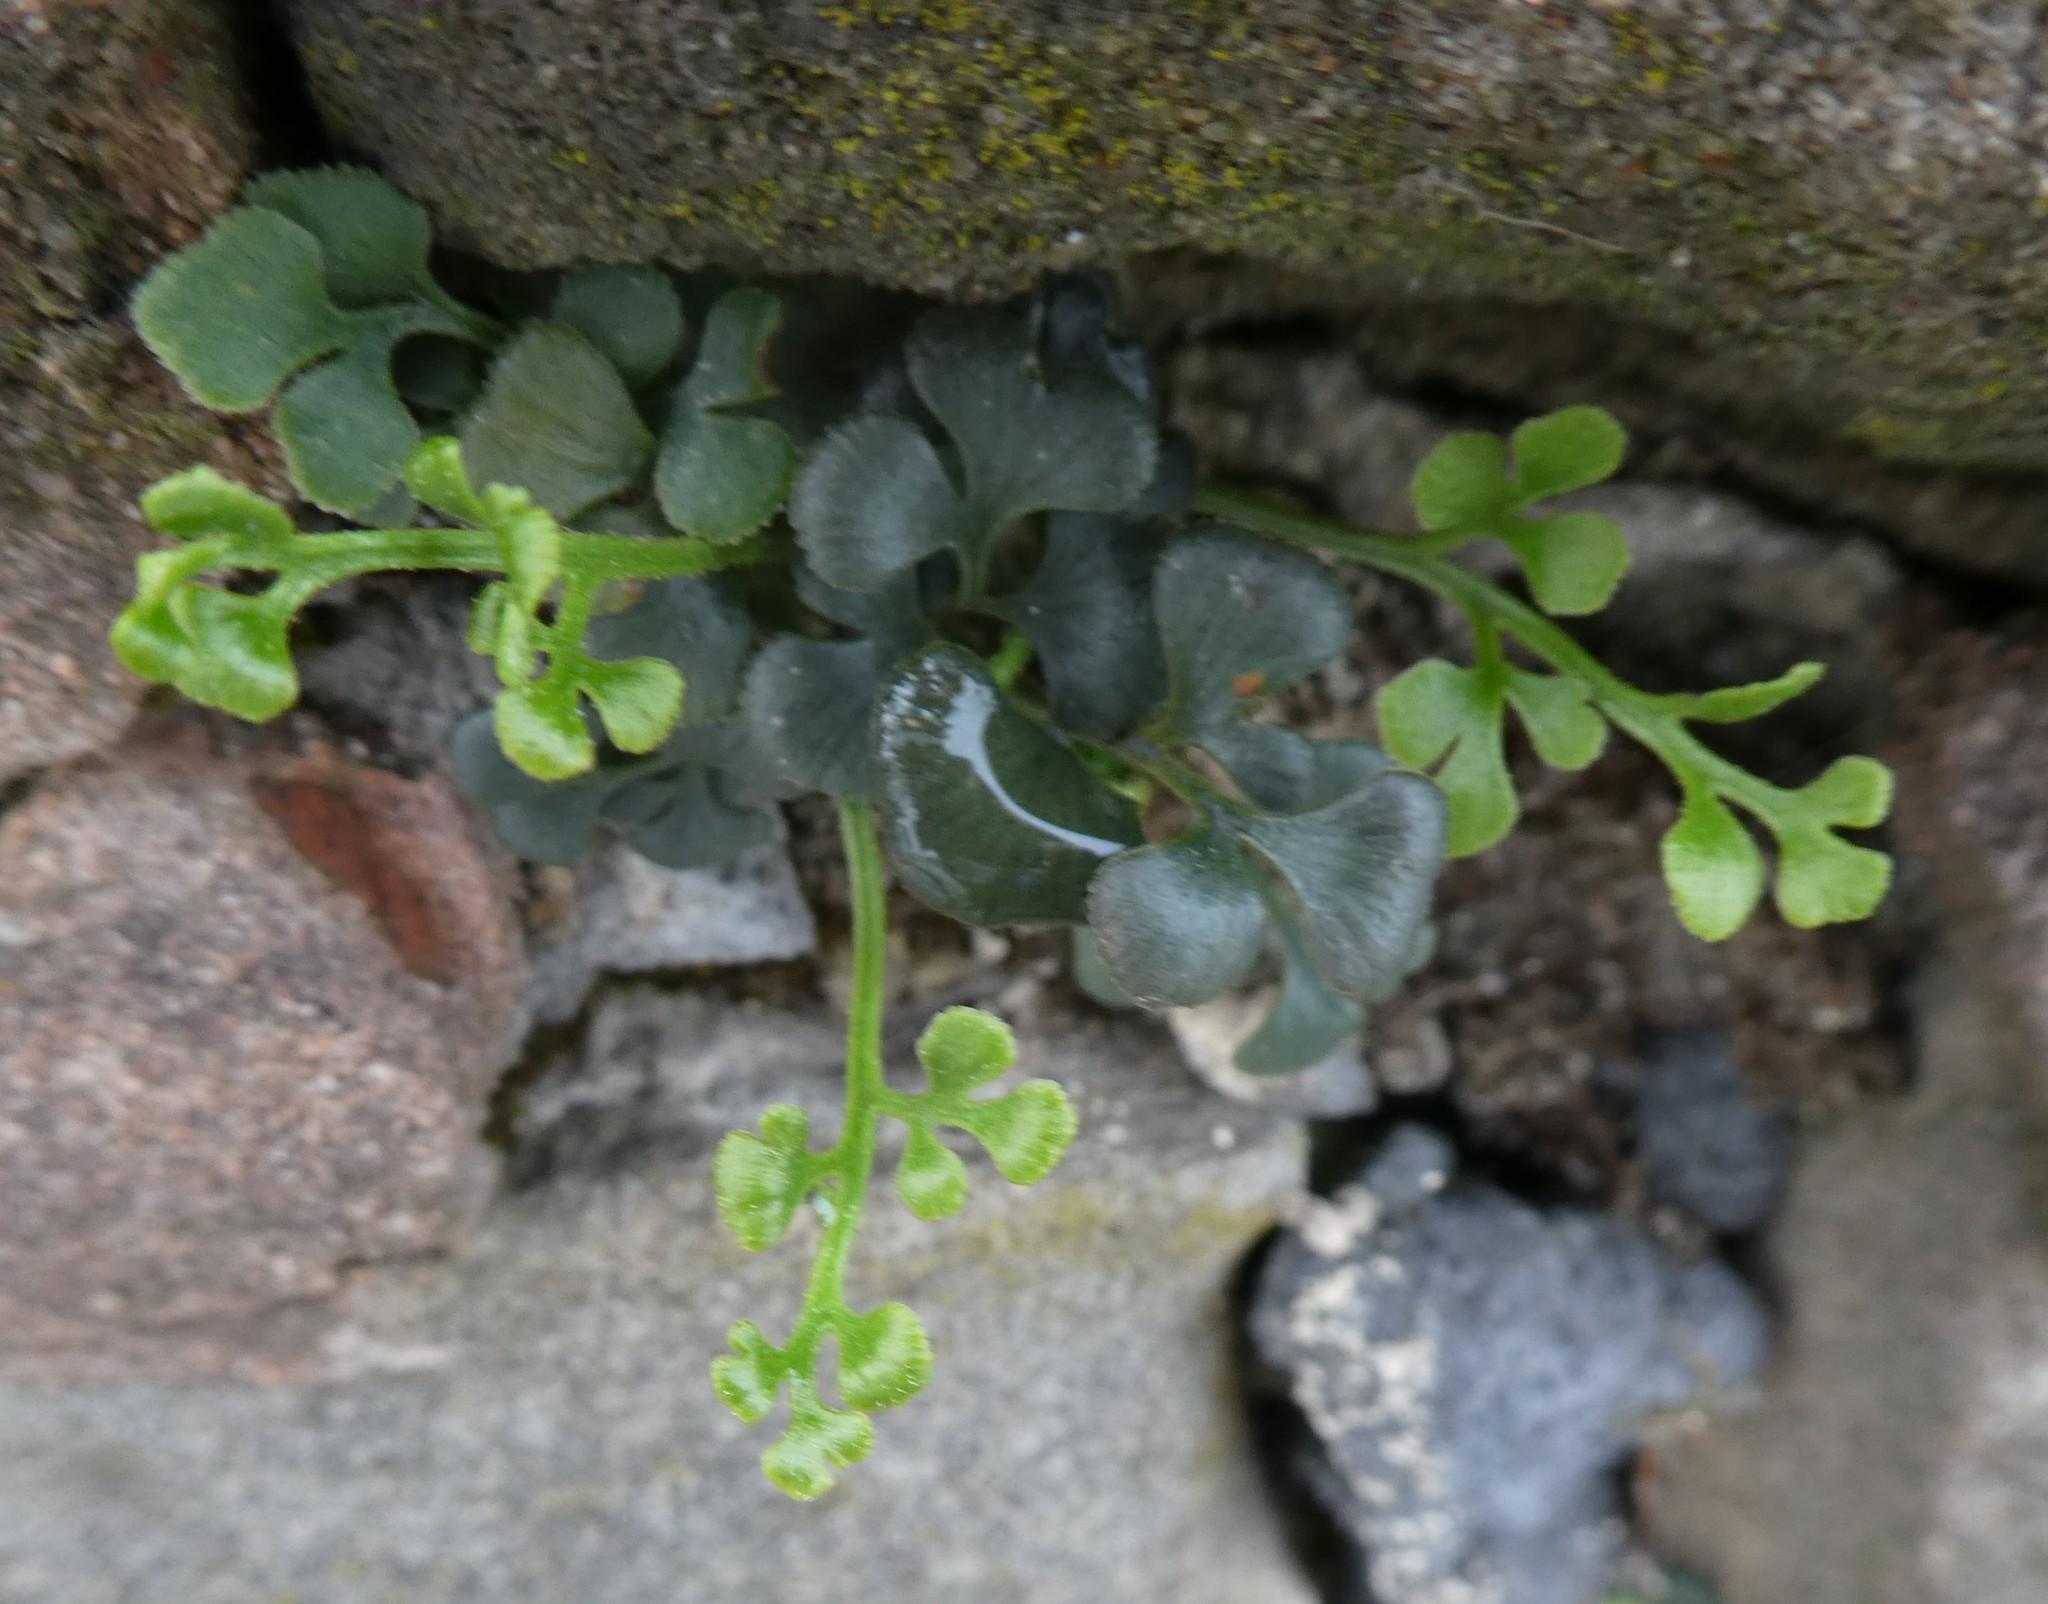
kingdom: Plantae
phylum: Tracheophyta
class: Polypodiopsida
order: Polypodiales
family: Aspleniaceae
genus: Asplenium
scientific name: Asplenium ruta-muraria
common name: Wall-rue
